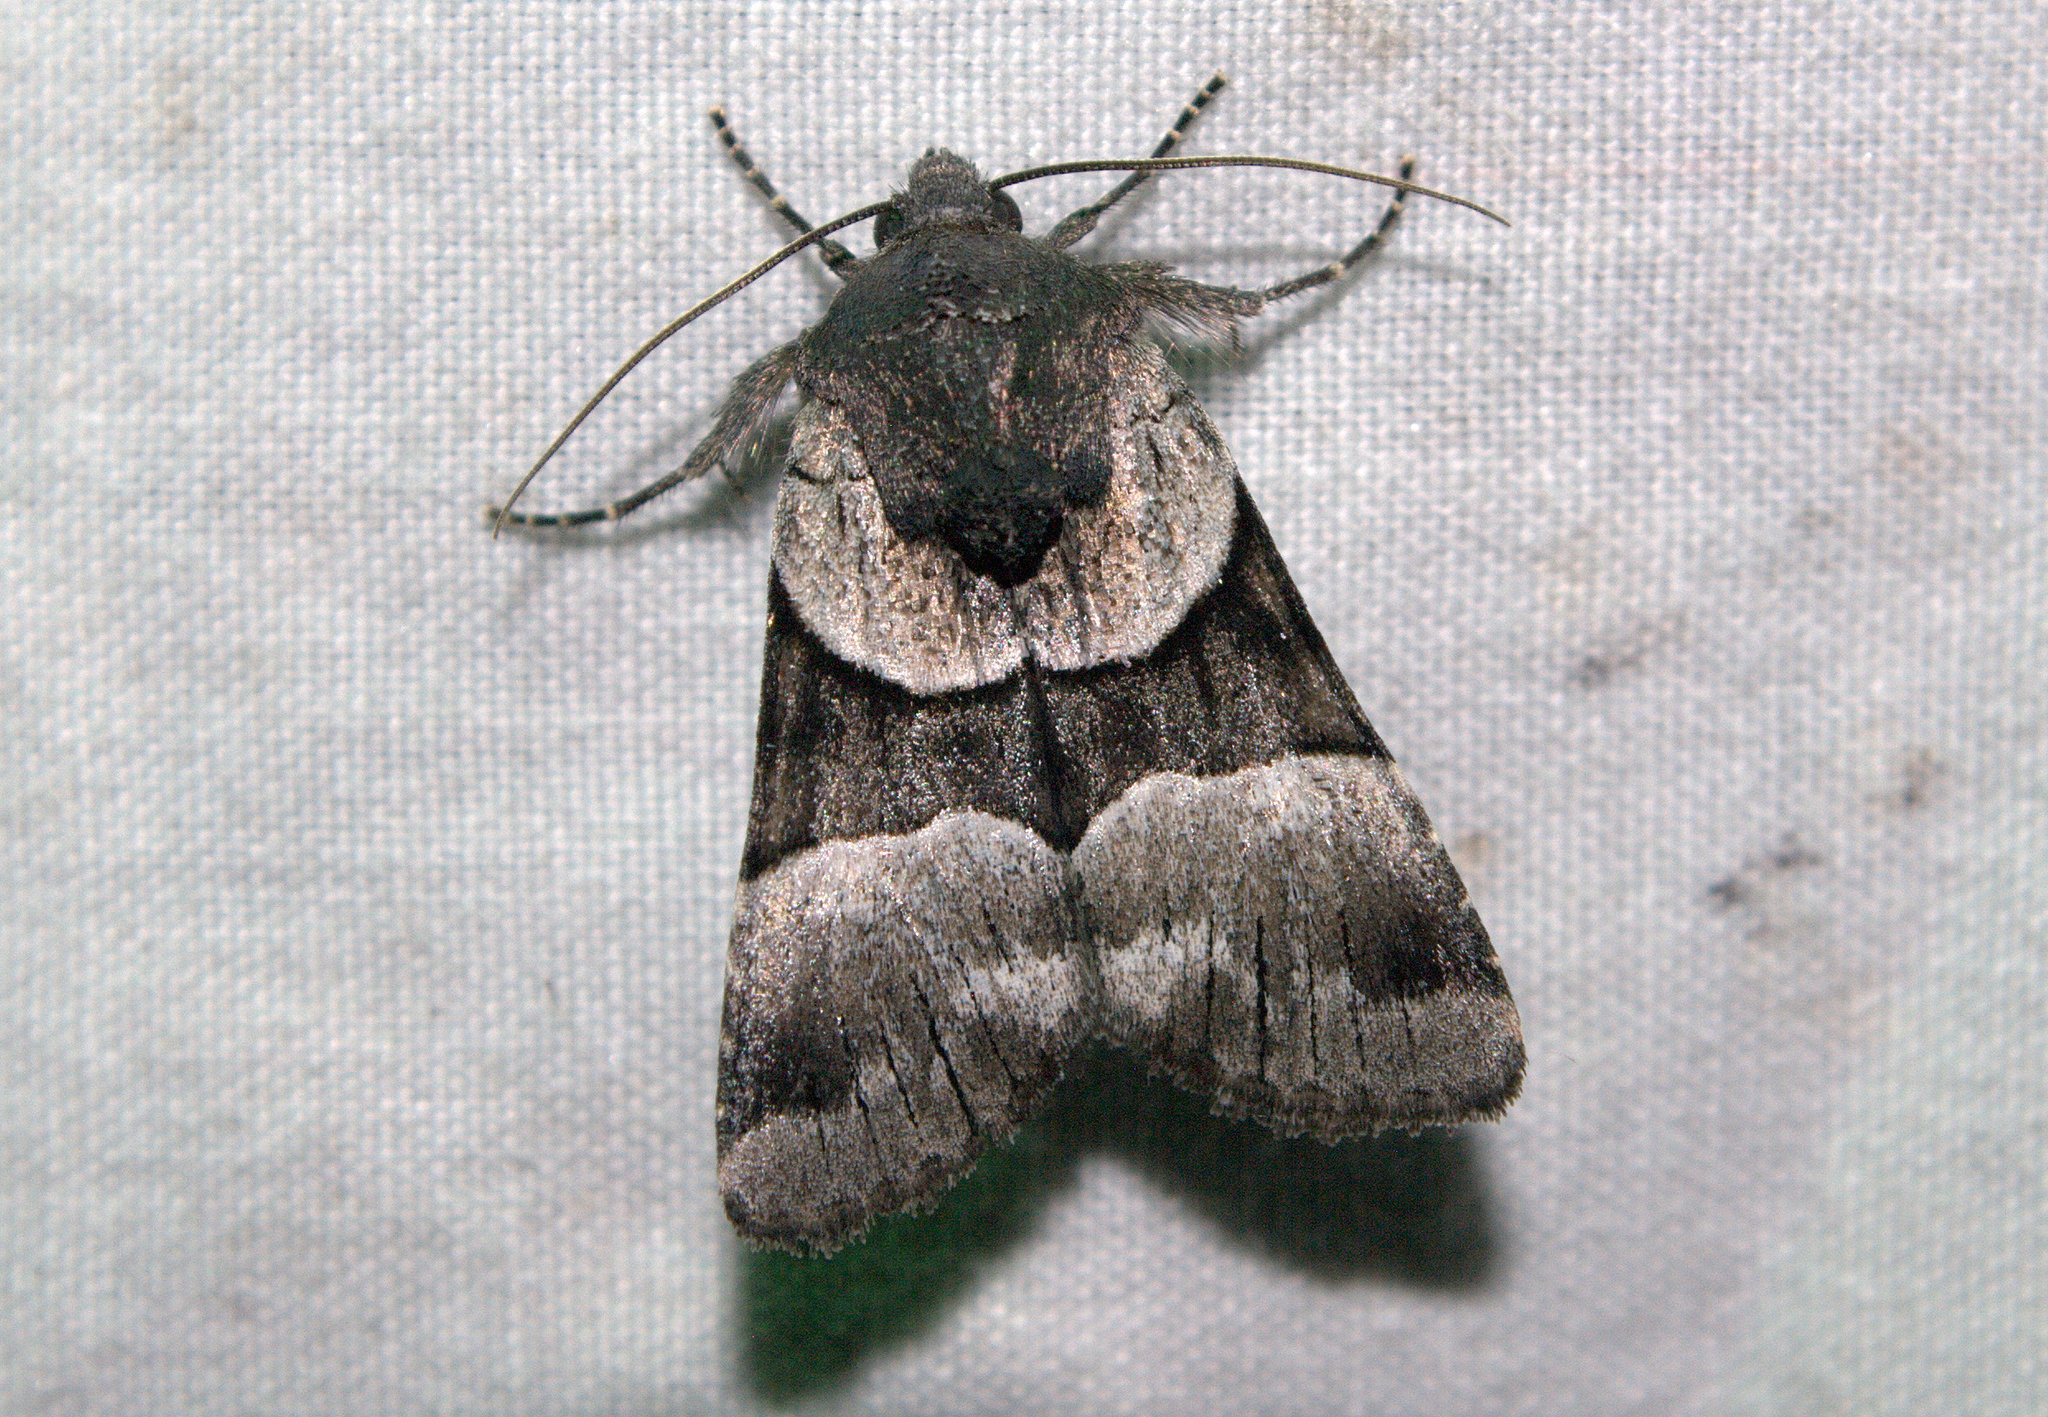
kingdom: Animalia
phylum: Arthropoda
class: Insecta
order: Lepidoptera
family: Noctuidae
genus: Sympistis
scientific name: Sympistis piffardi
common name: Three-striped oncocnemis
